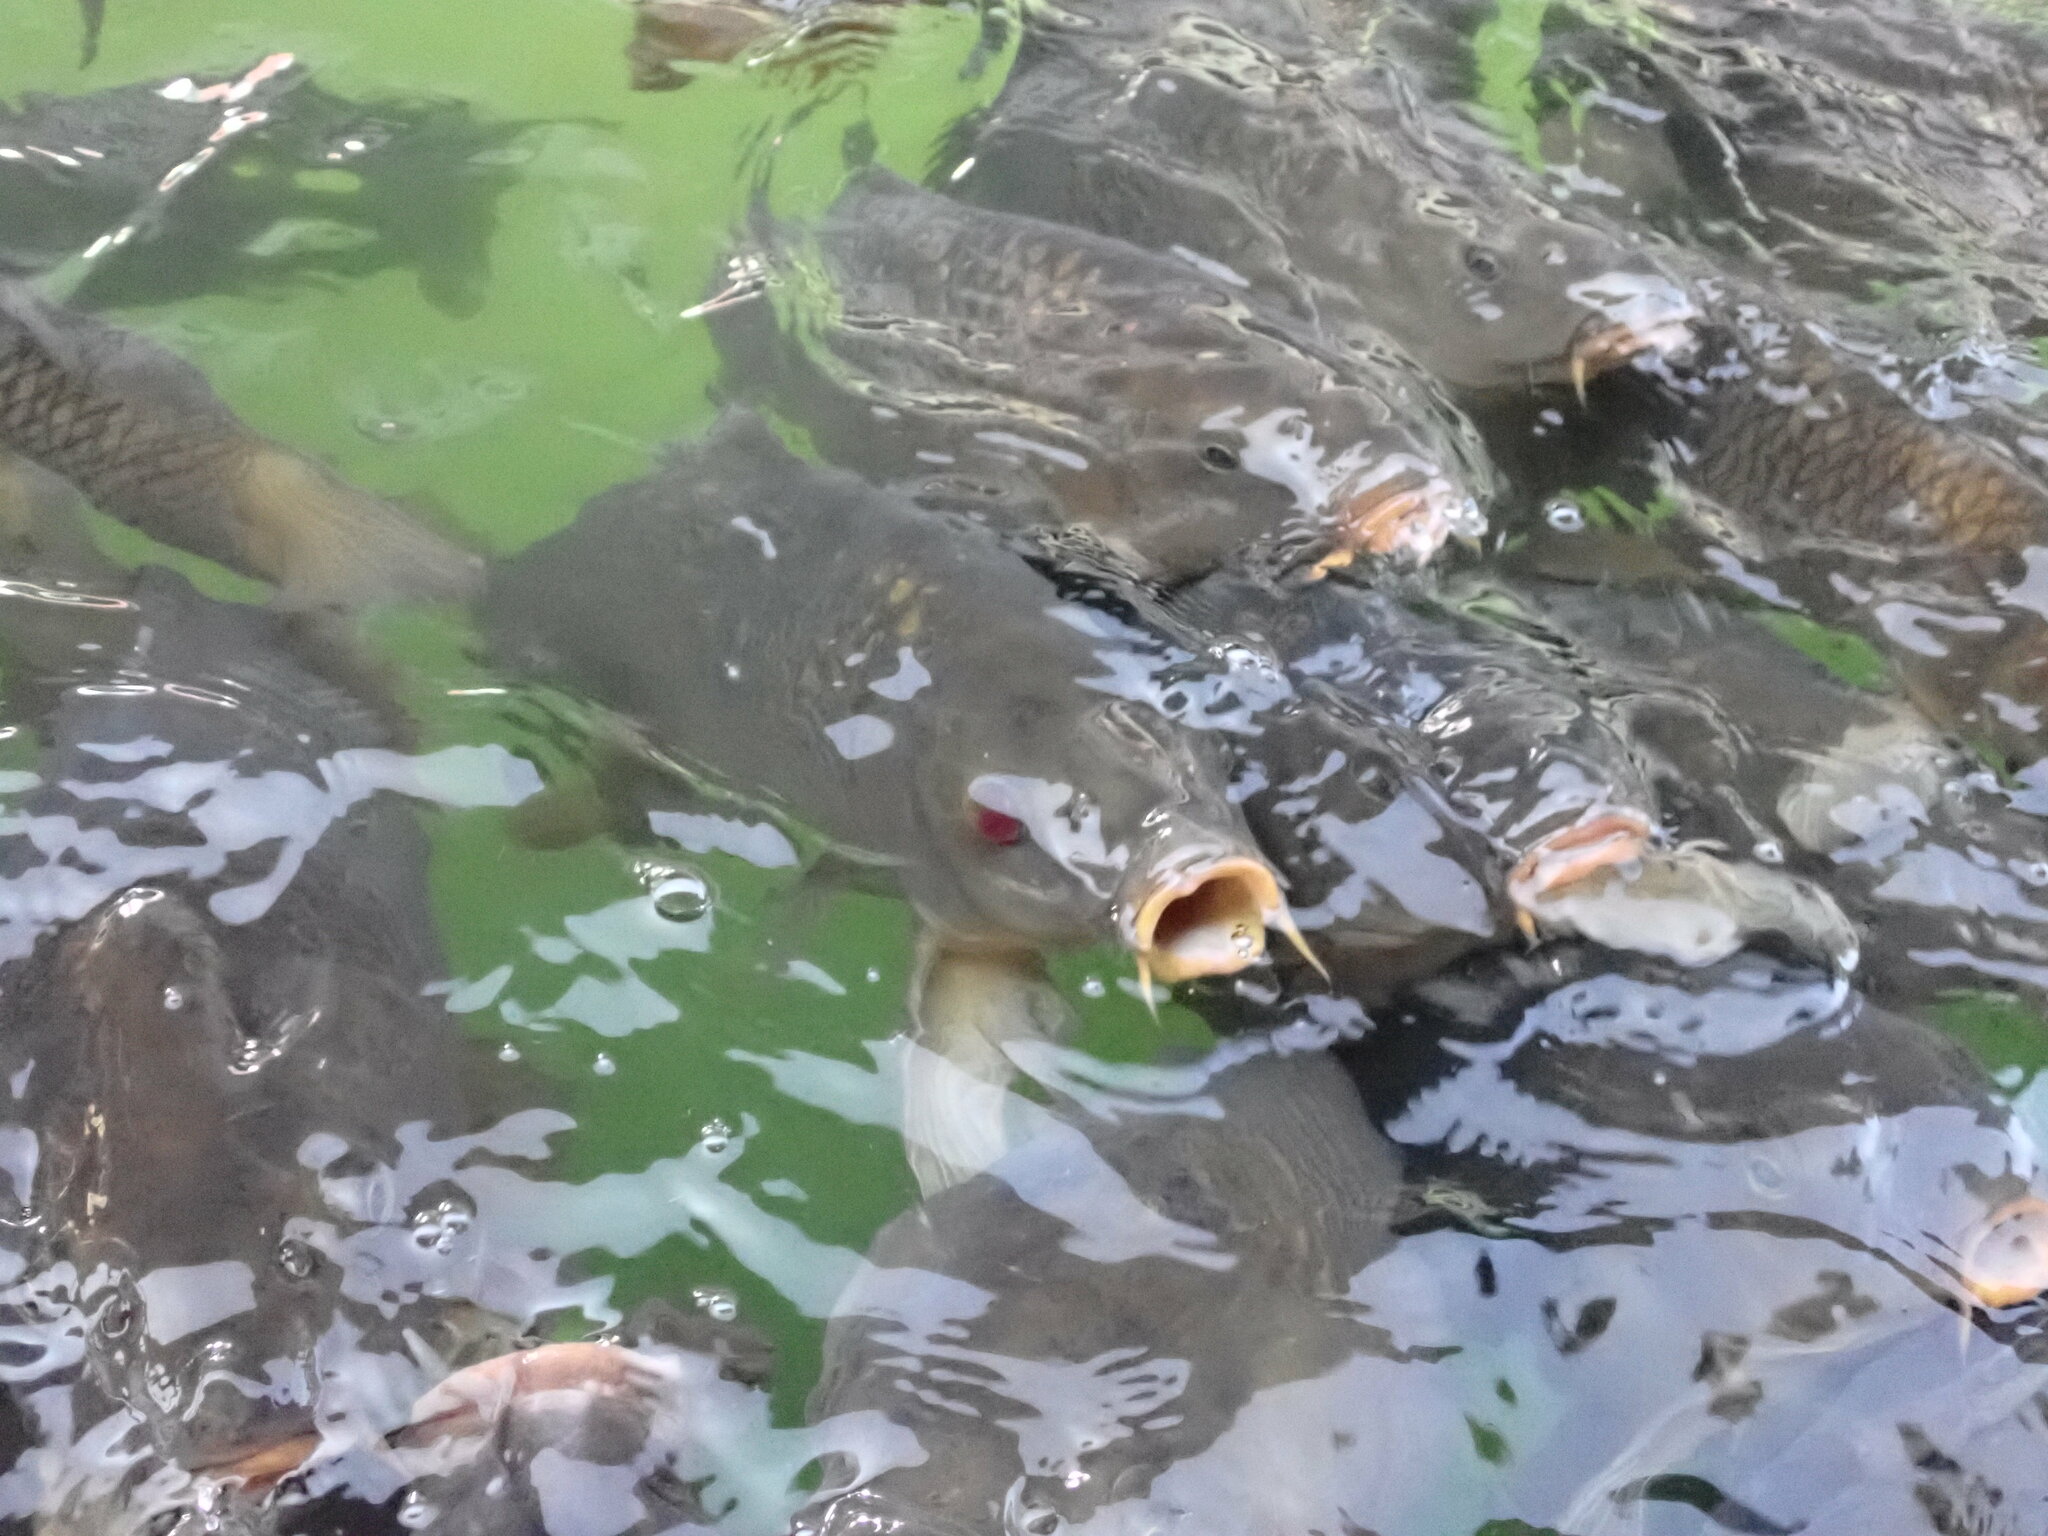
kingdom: Animalia
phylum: Chordata
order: Cypriniformes
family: Cyprinidae
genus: Cyprinus
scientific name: Cyprinus carpio
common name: Common carp
